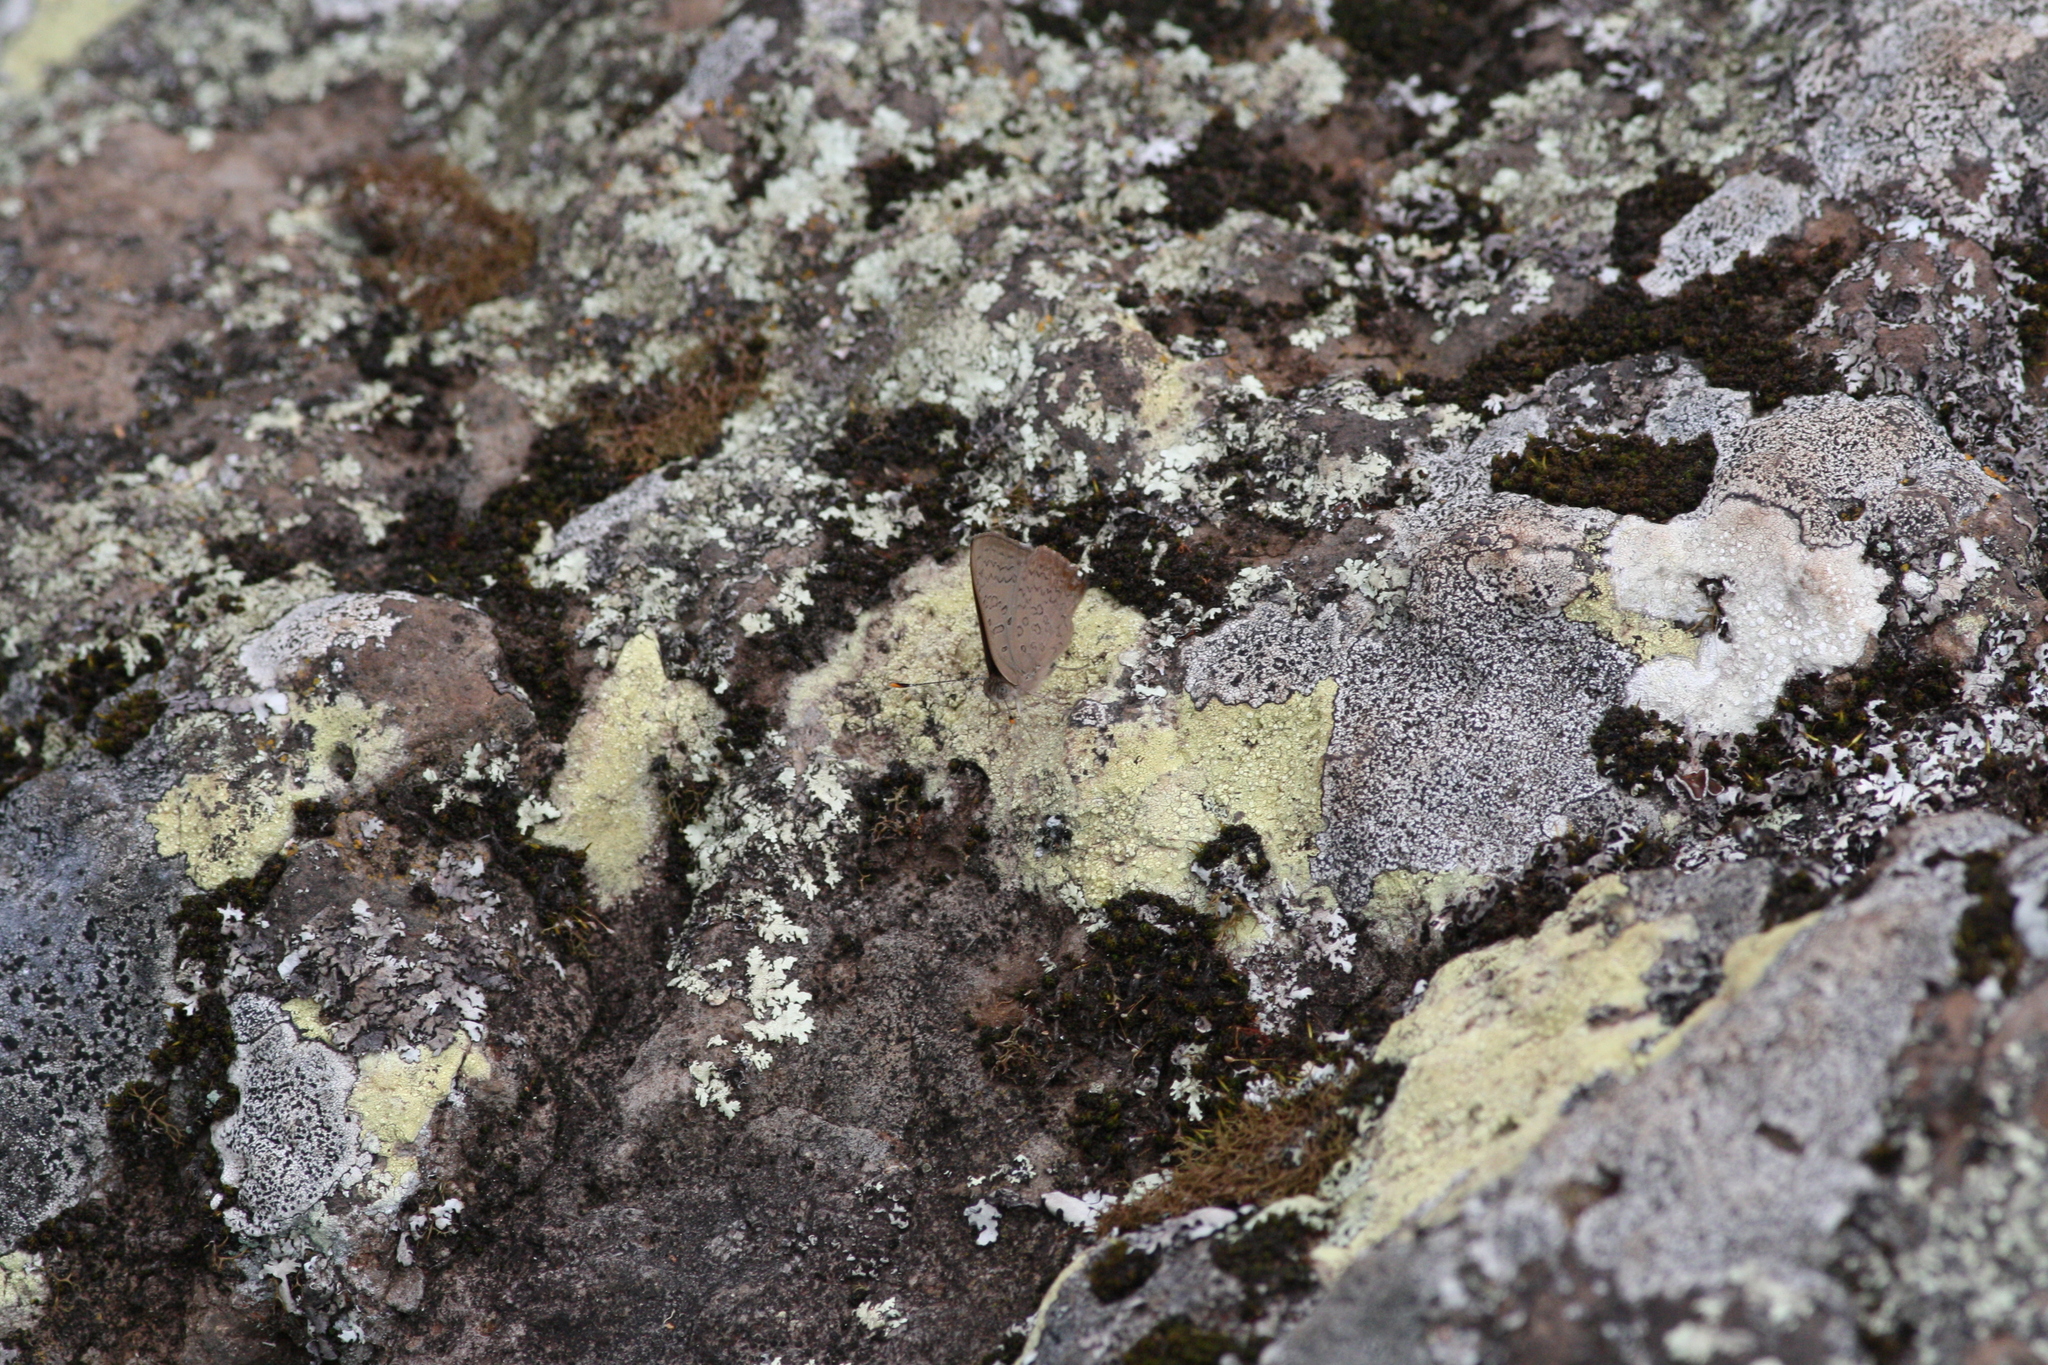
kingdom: Animalia
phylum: Arthropoda
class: Insecta
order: Lepidoptera
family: Lycaenidae
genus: Paralucia
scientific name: Paralucia pyrodiscus
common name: Fiery copper
